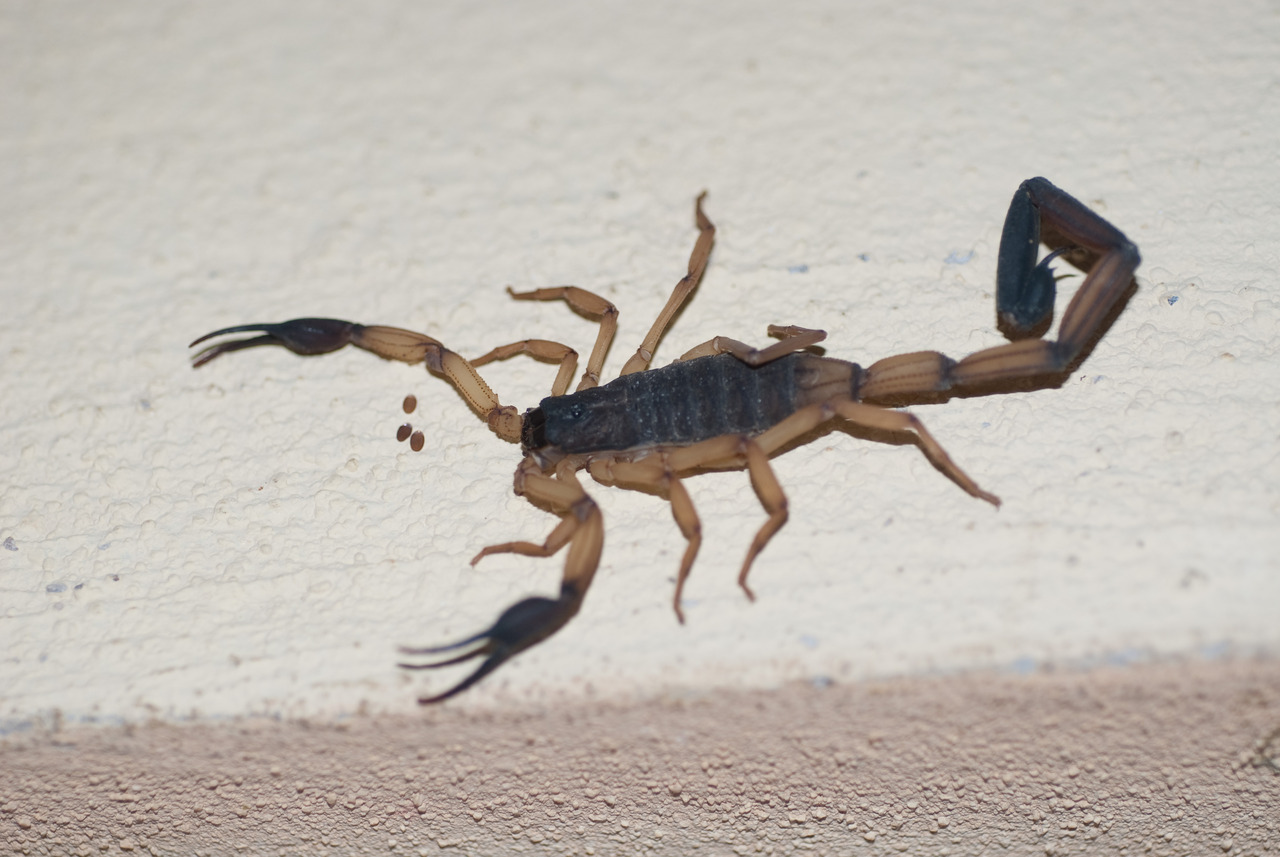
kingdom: Animalia
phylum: Arthropoda
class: Arachnida
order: Scorpiones
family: Buthidae
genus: Centruroides
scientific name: Centruroides bicolor
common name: Scorpions
